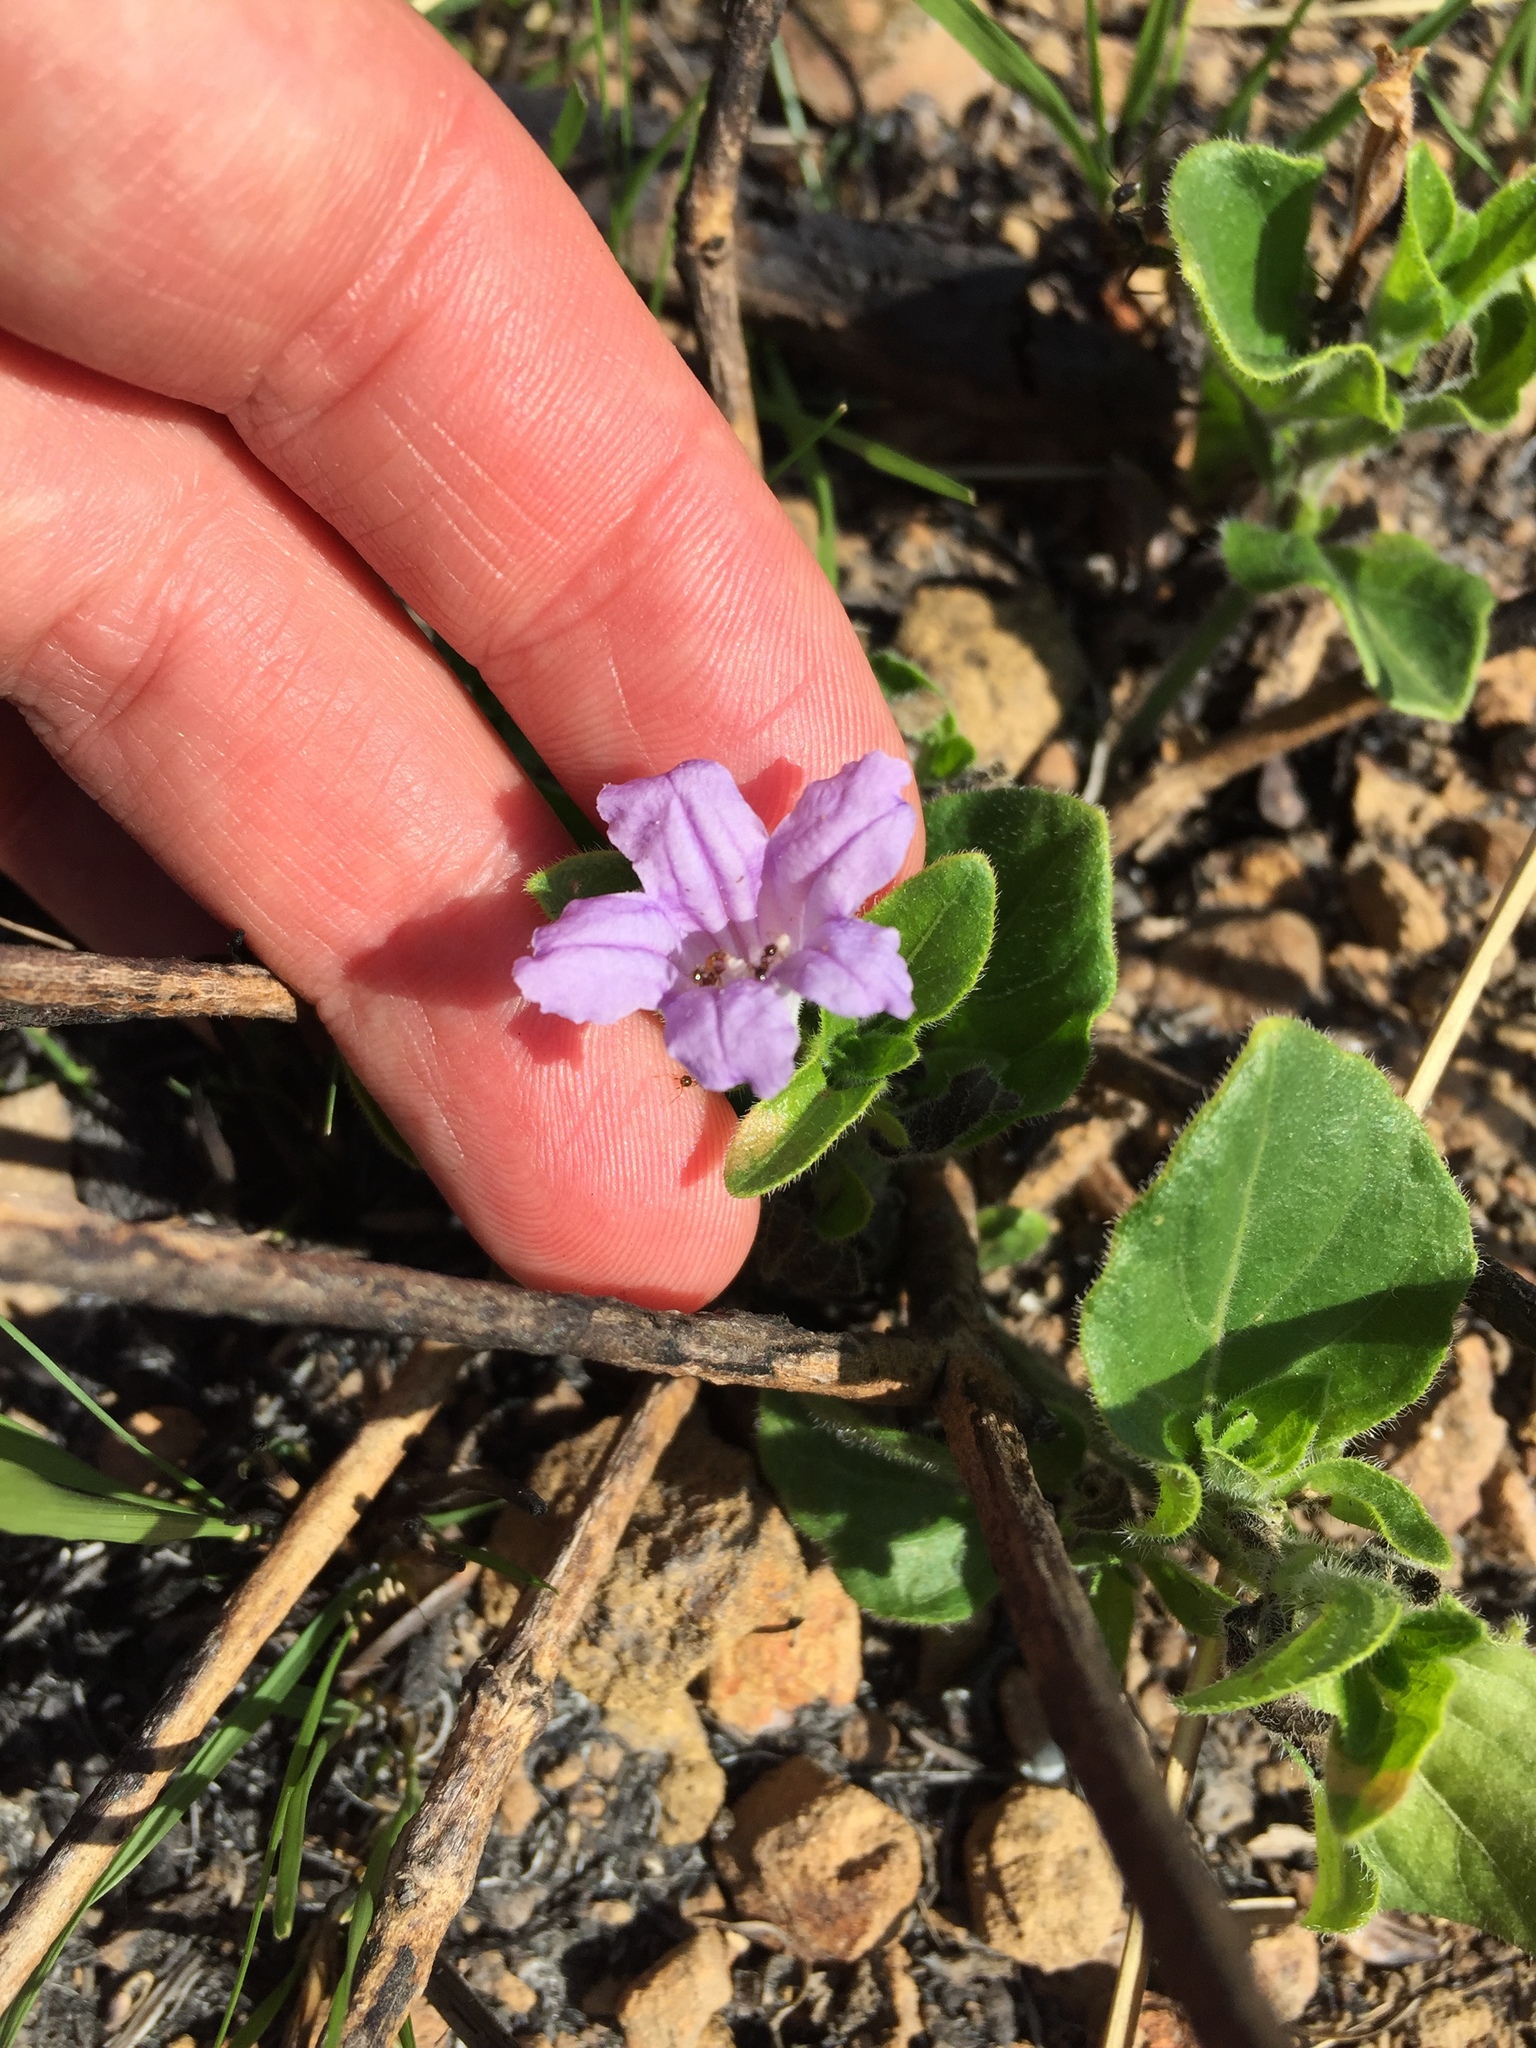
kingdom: Plantae
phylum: Tracheophyta
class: Magnoliopsida
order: Lamiales
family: Acanthaceae
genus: Ruellia
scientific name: Ruellia cordata
